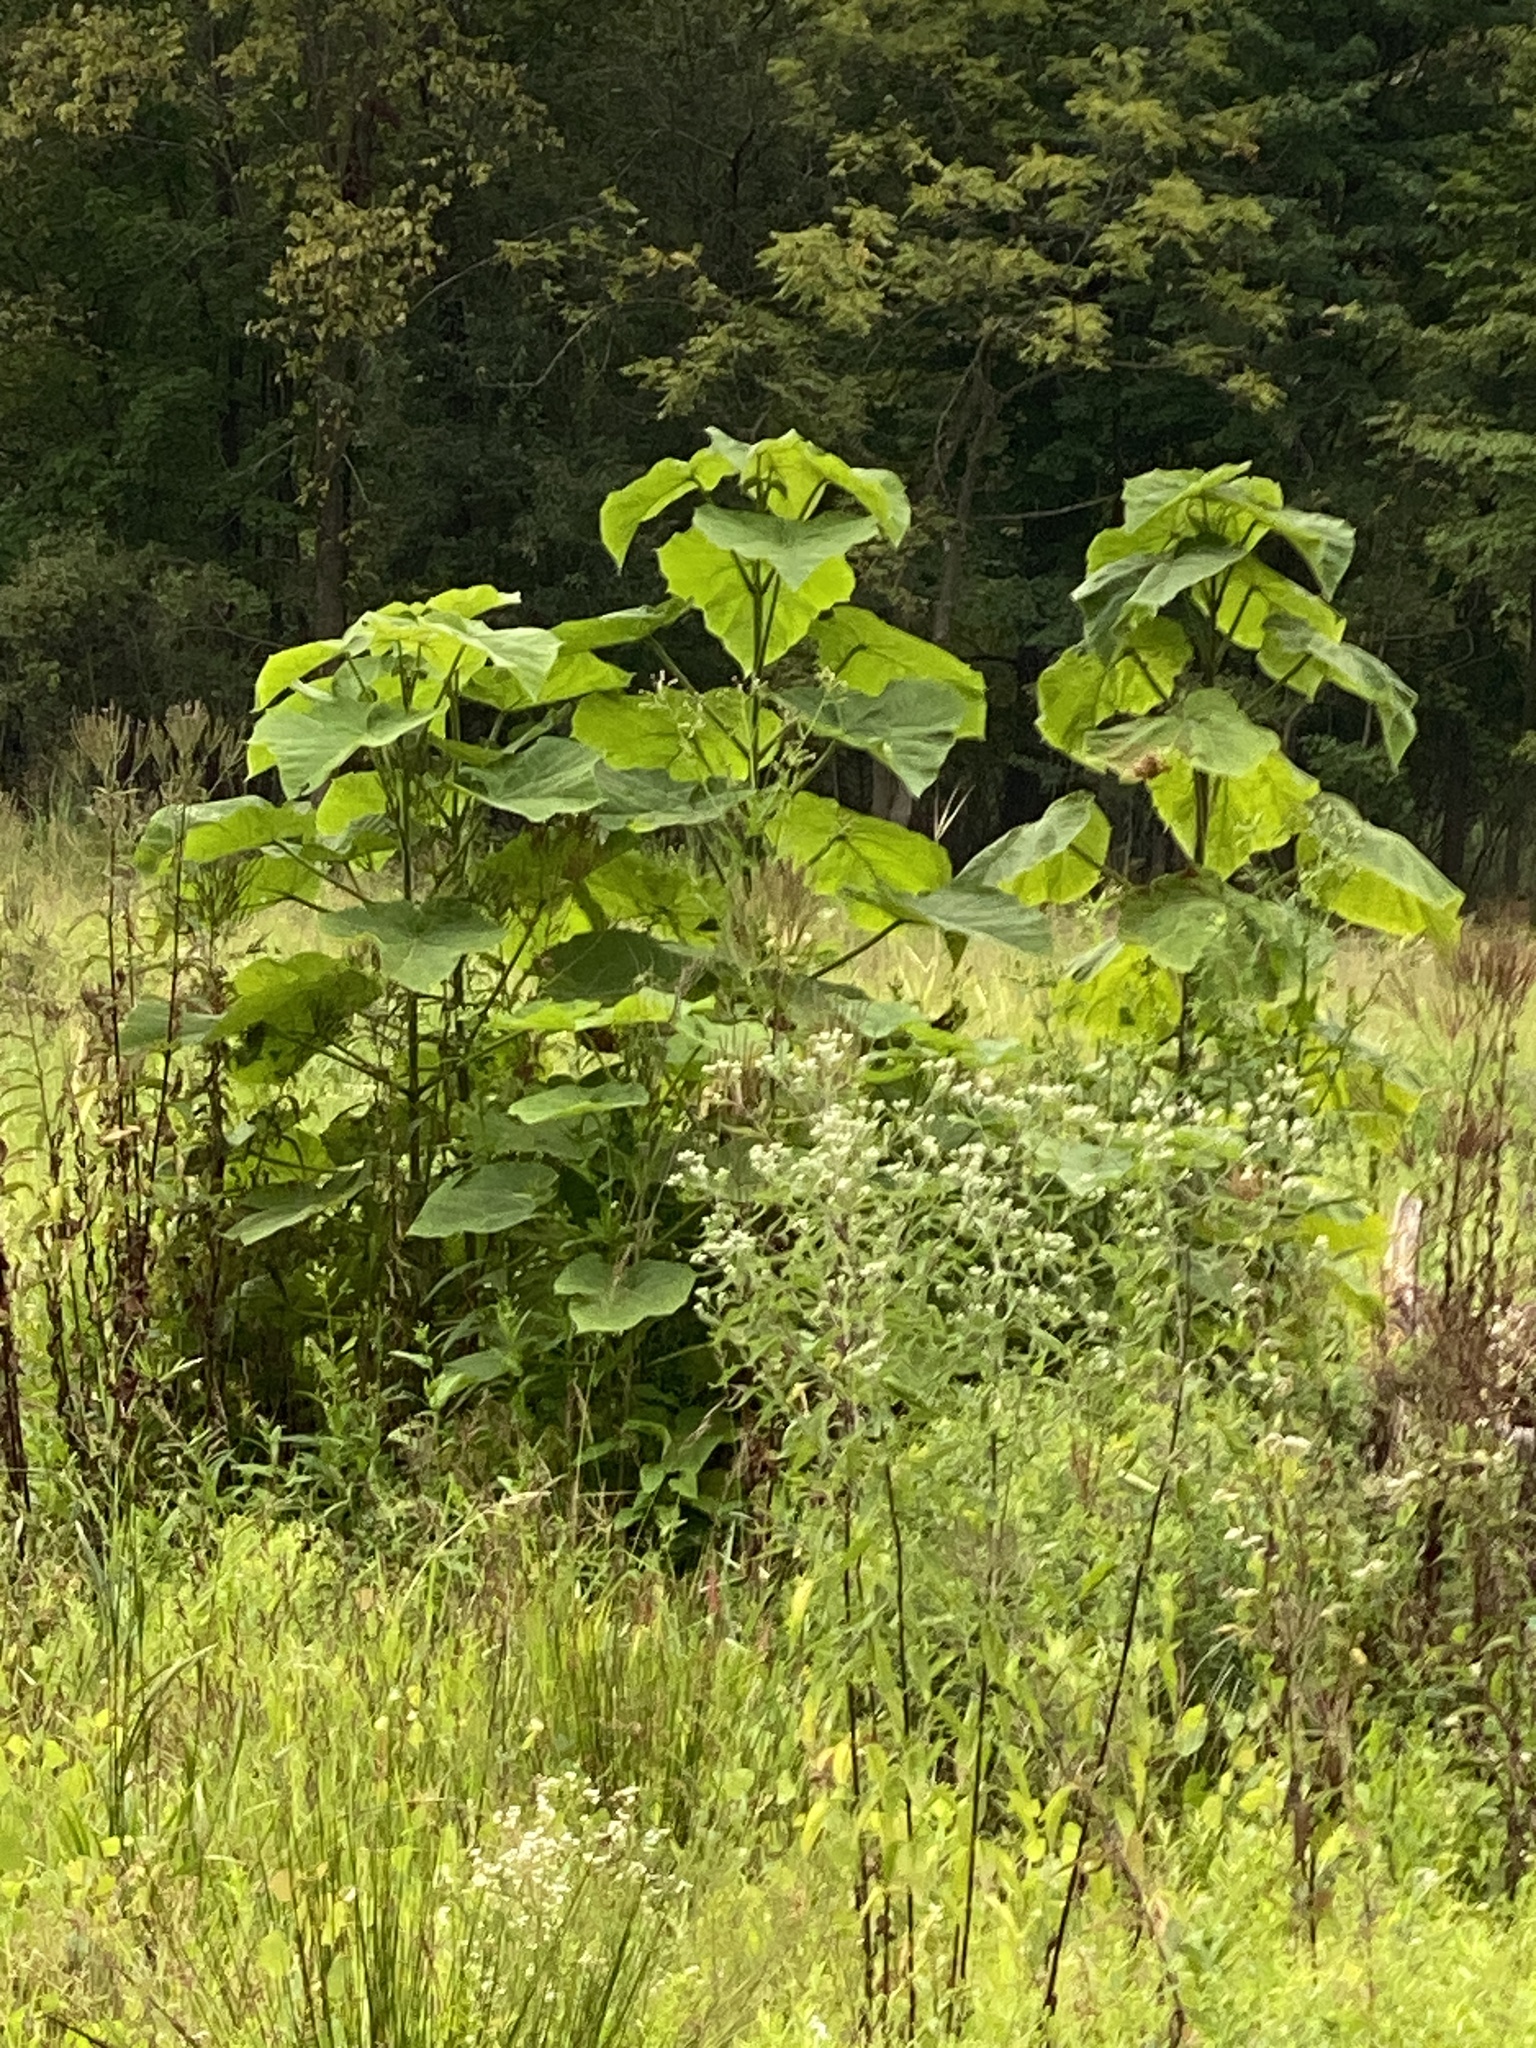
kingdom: Plantae
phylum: Tracheophyta
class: Magnoliopsida
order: Lamiales
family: Paulowniaceae
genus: Paulownia
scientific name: Paulownia tomentosa
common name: Foxglove-tree
